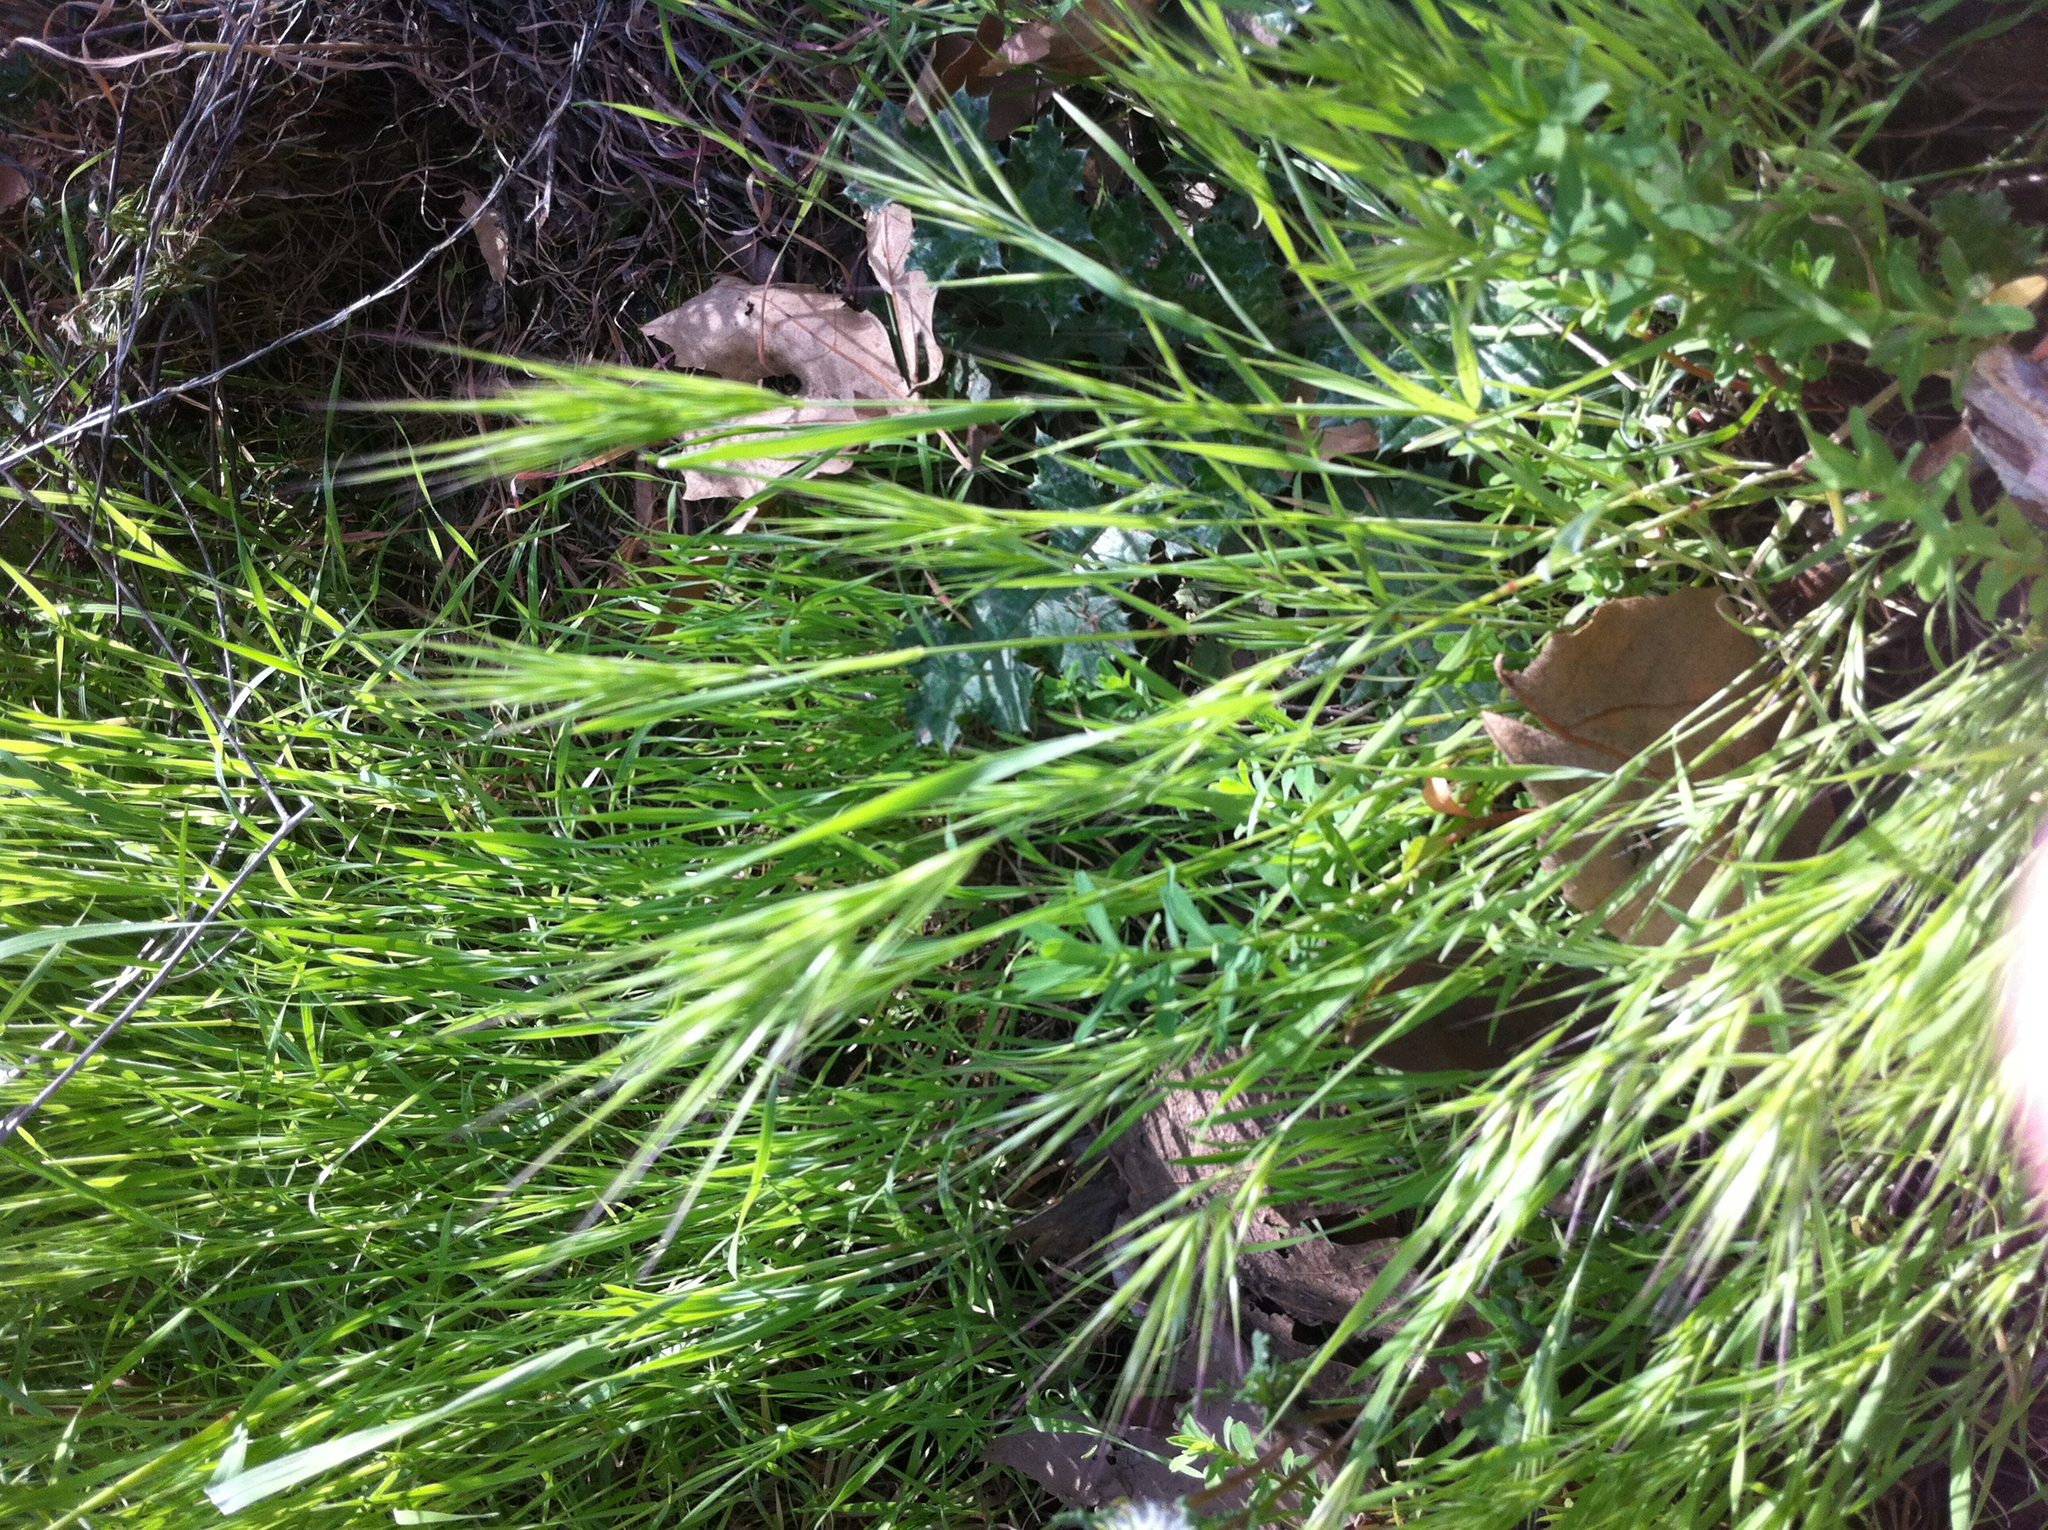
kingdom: Plantae
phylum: Tracheophyta
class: Liliopsida
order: Poales
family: Poaceae
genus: Bromus
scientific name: Bromus madritensis
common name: Compact brome
